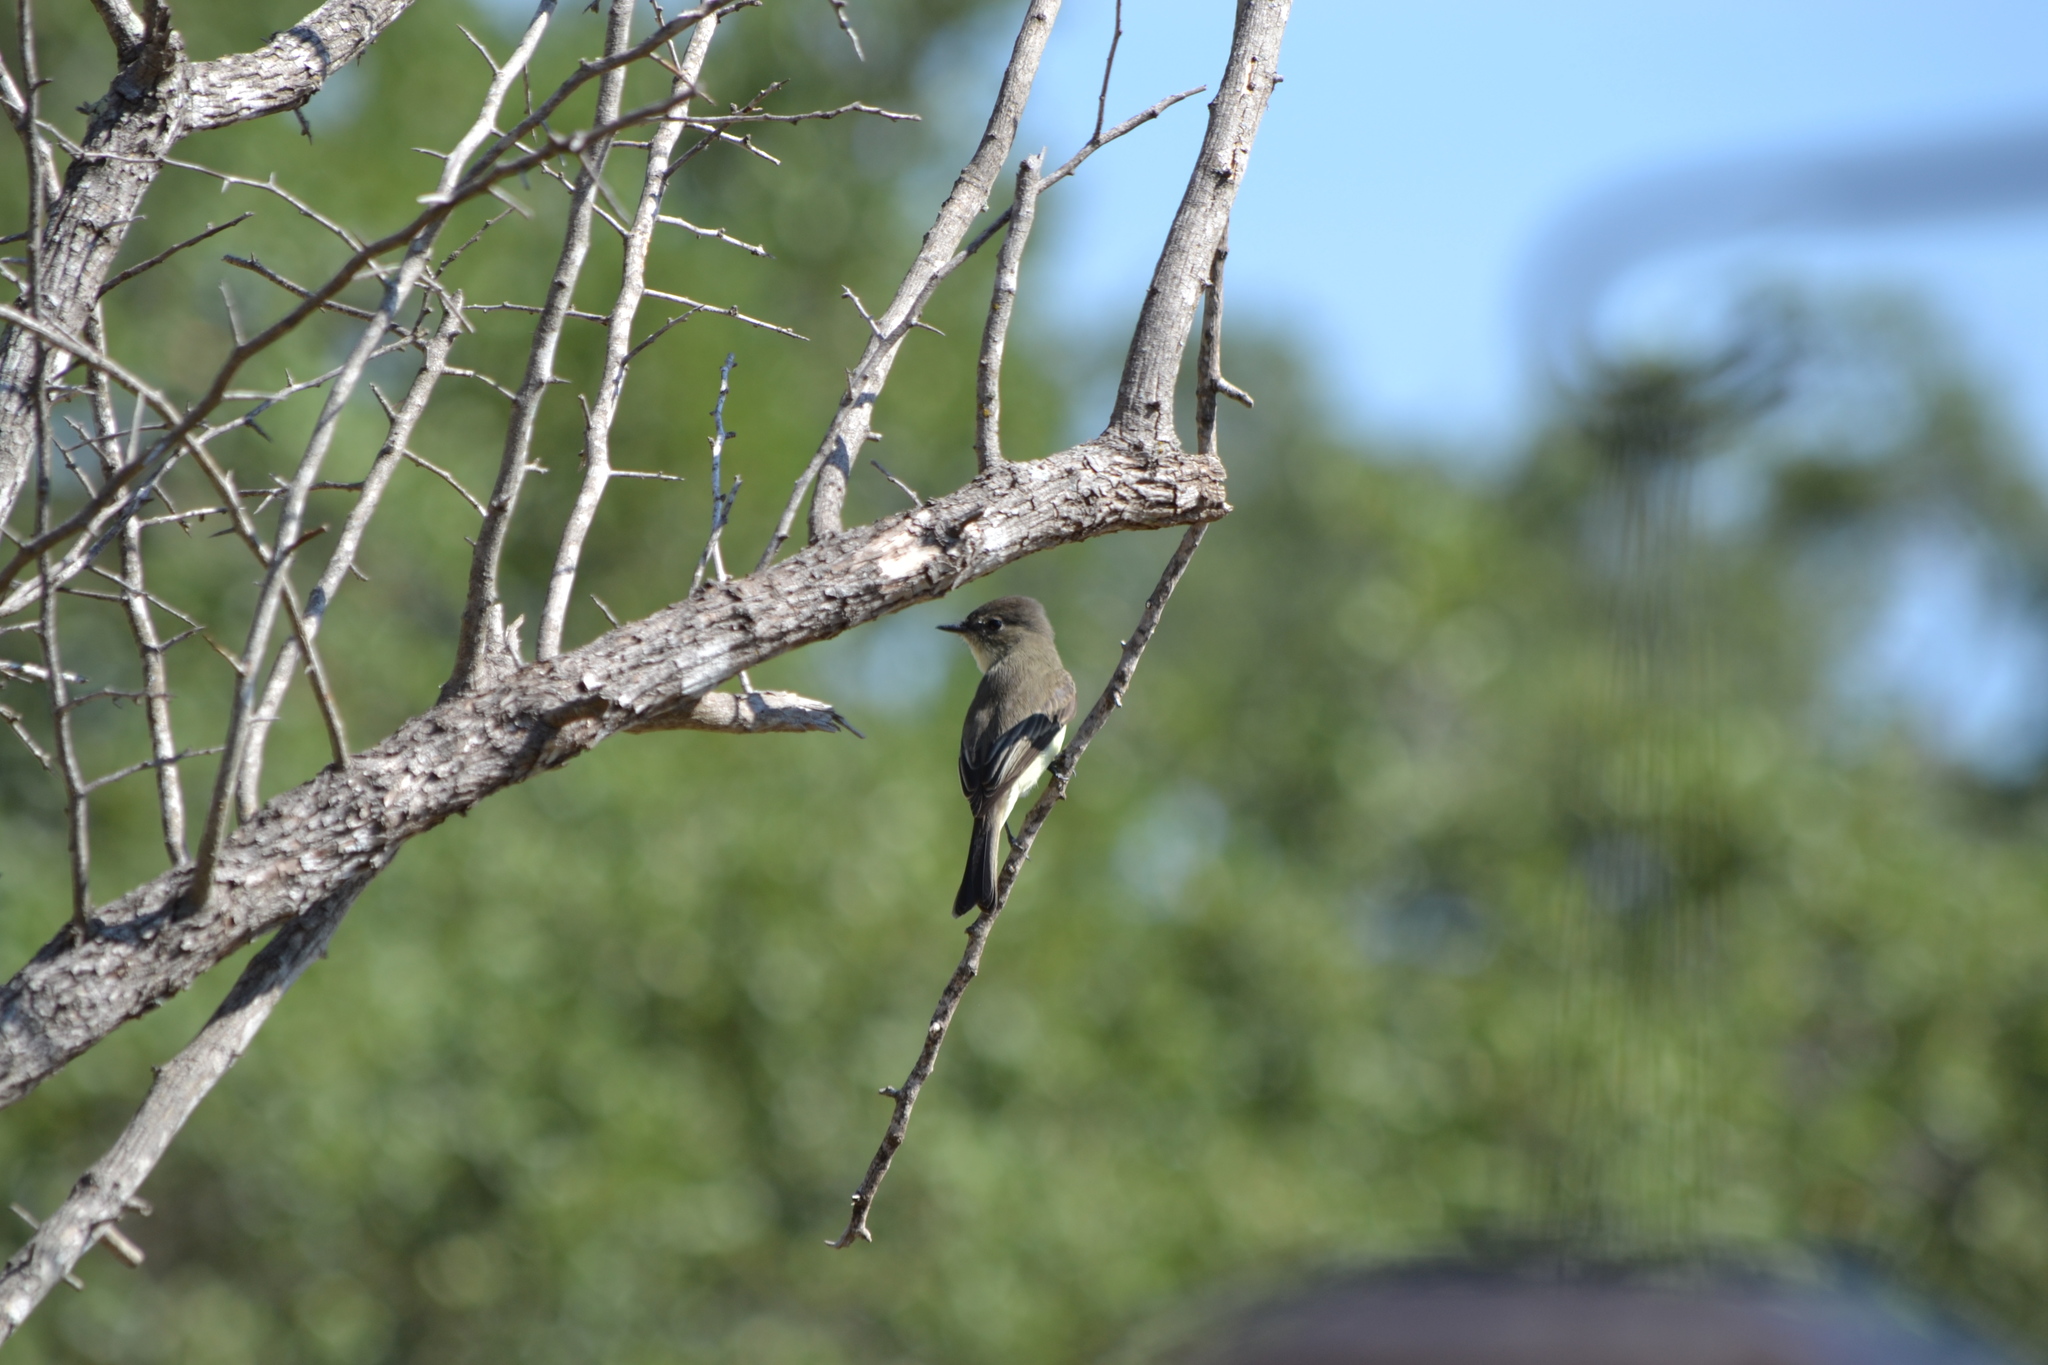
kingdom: Animalia
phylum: Chordata
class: Aves
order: Passeriformes
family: Tyrannidae
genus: Sayornis
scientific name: Sayornis phoebe
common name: Eastern phoebe
